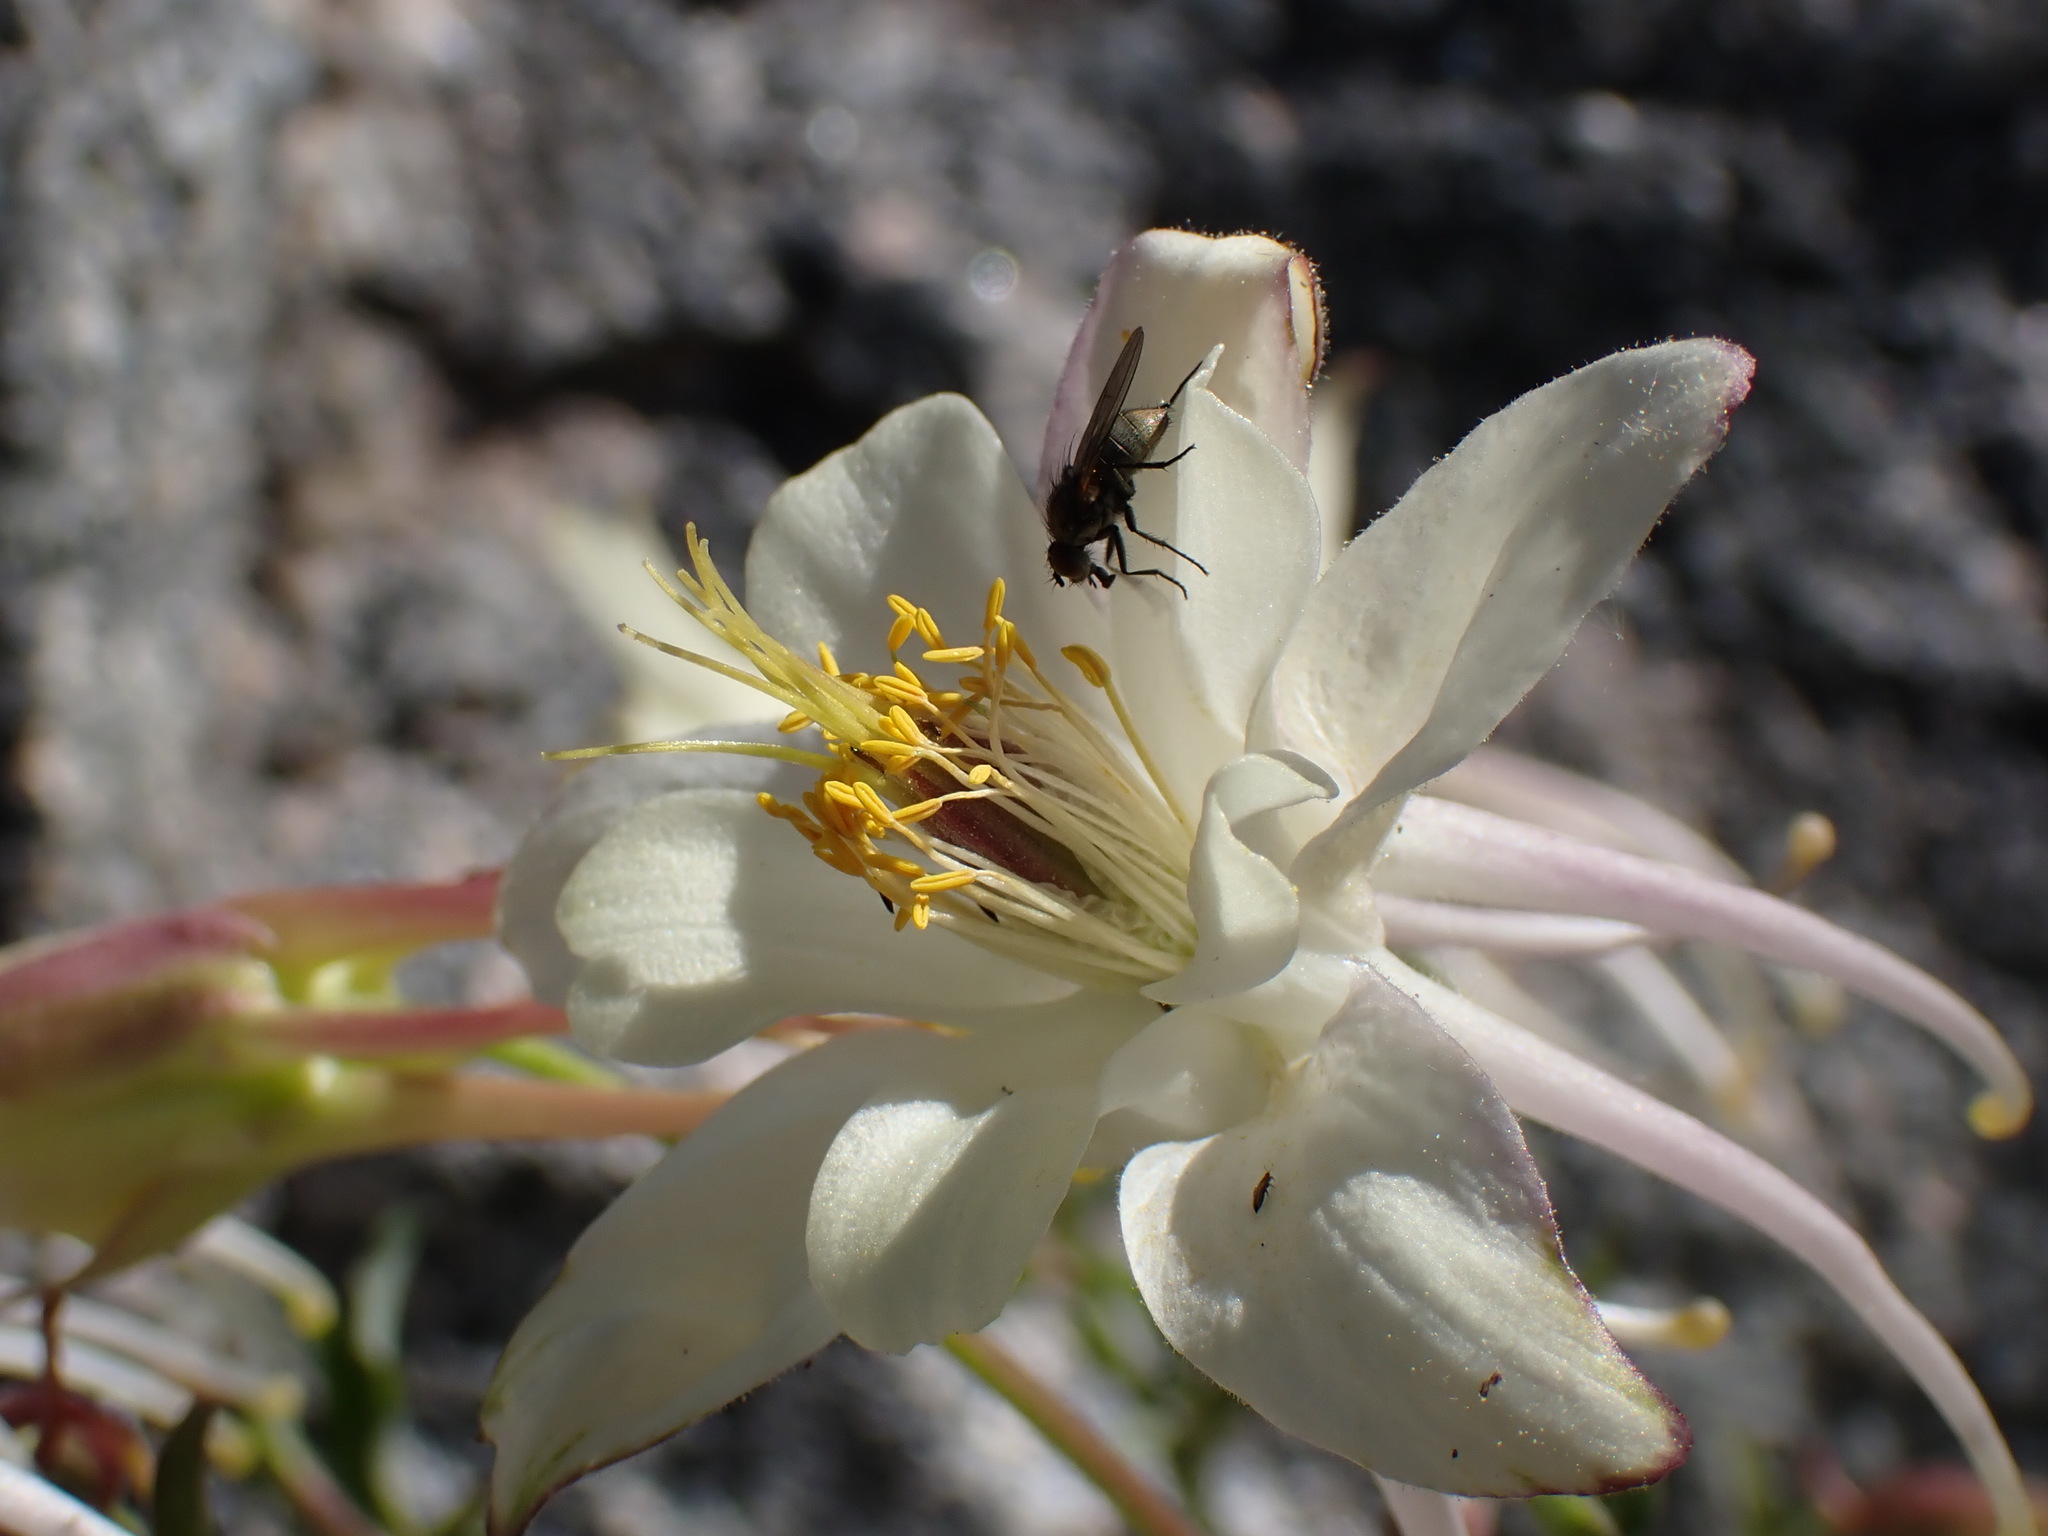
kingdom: Plantae
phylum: Tracheophyta
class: Magnoliopsida
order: Ranunculales
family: Ranunculaceae
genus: Aquilegia
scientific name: Aquilegia pubescens
